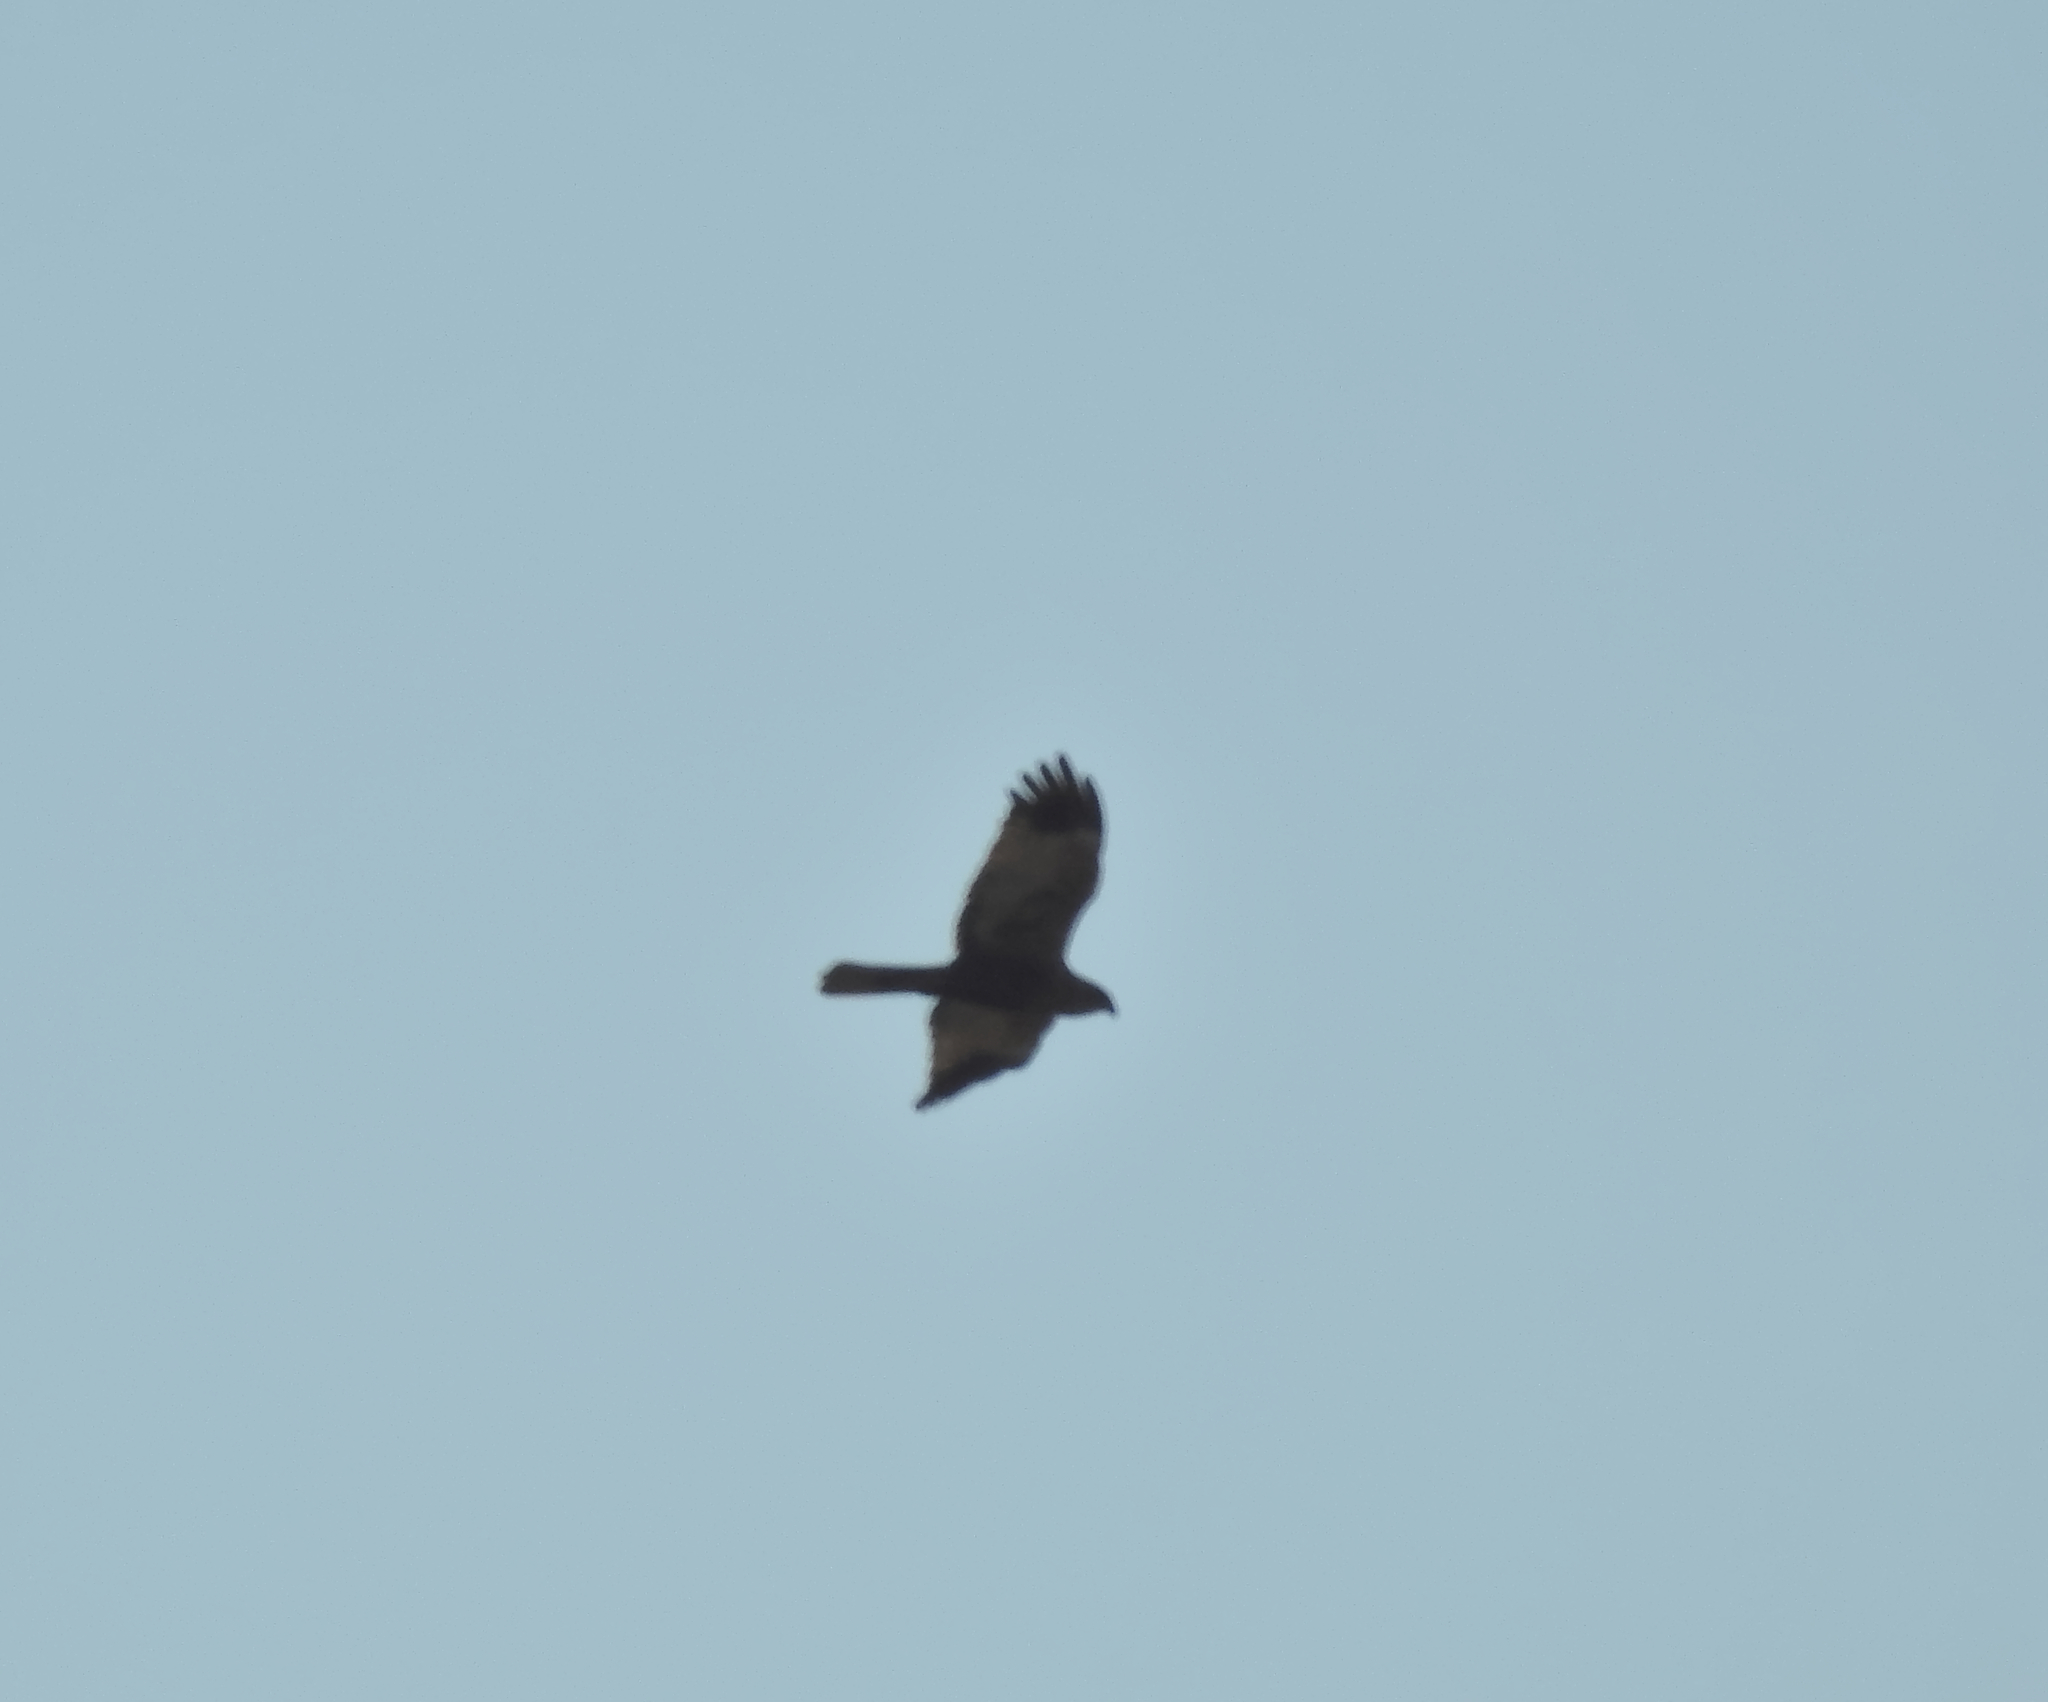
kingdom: Animalia
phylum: Chordata
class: Aves
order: Accipitriformes
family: Accipitridae
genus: Circus
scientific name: Circus aeruginosus
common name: Western marsh harrier
